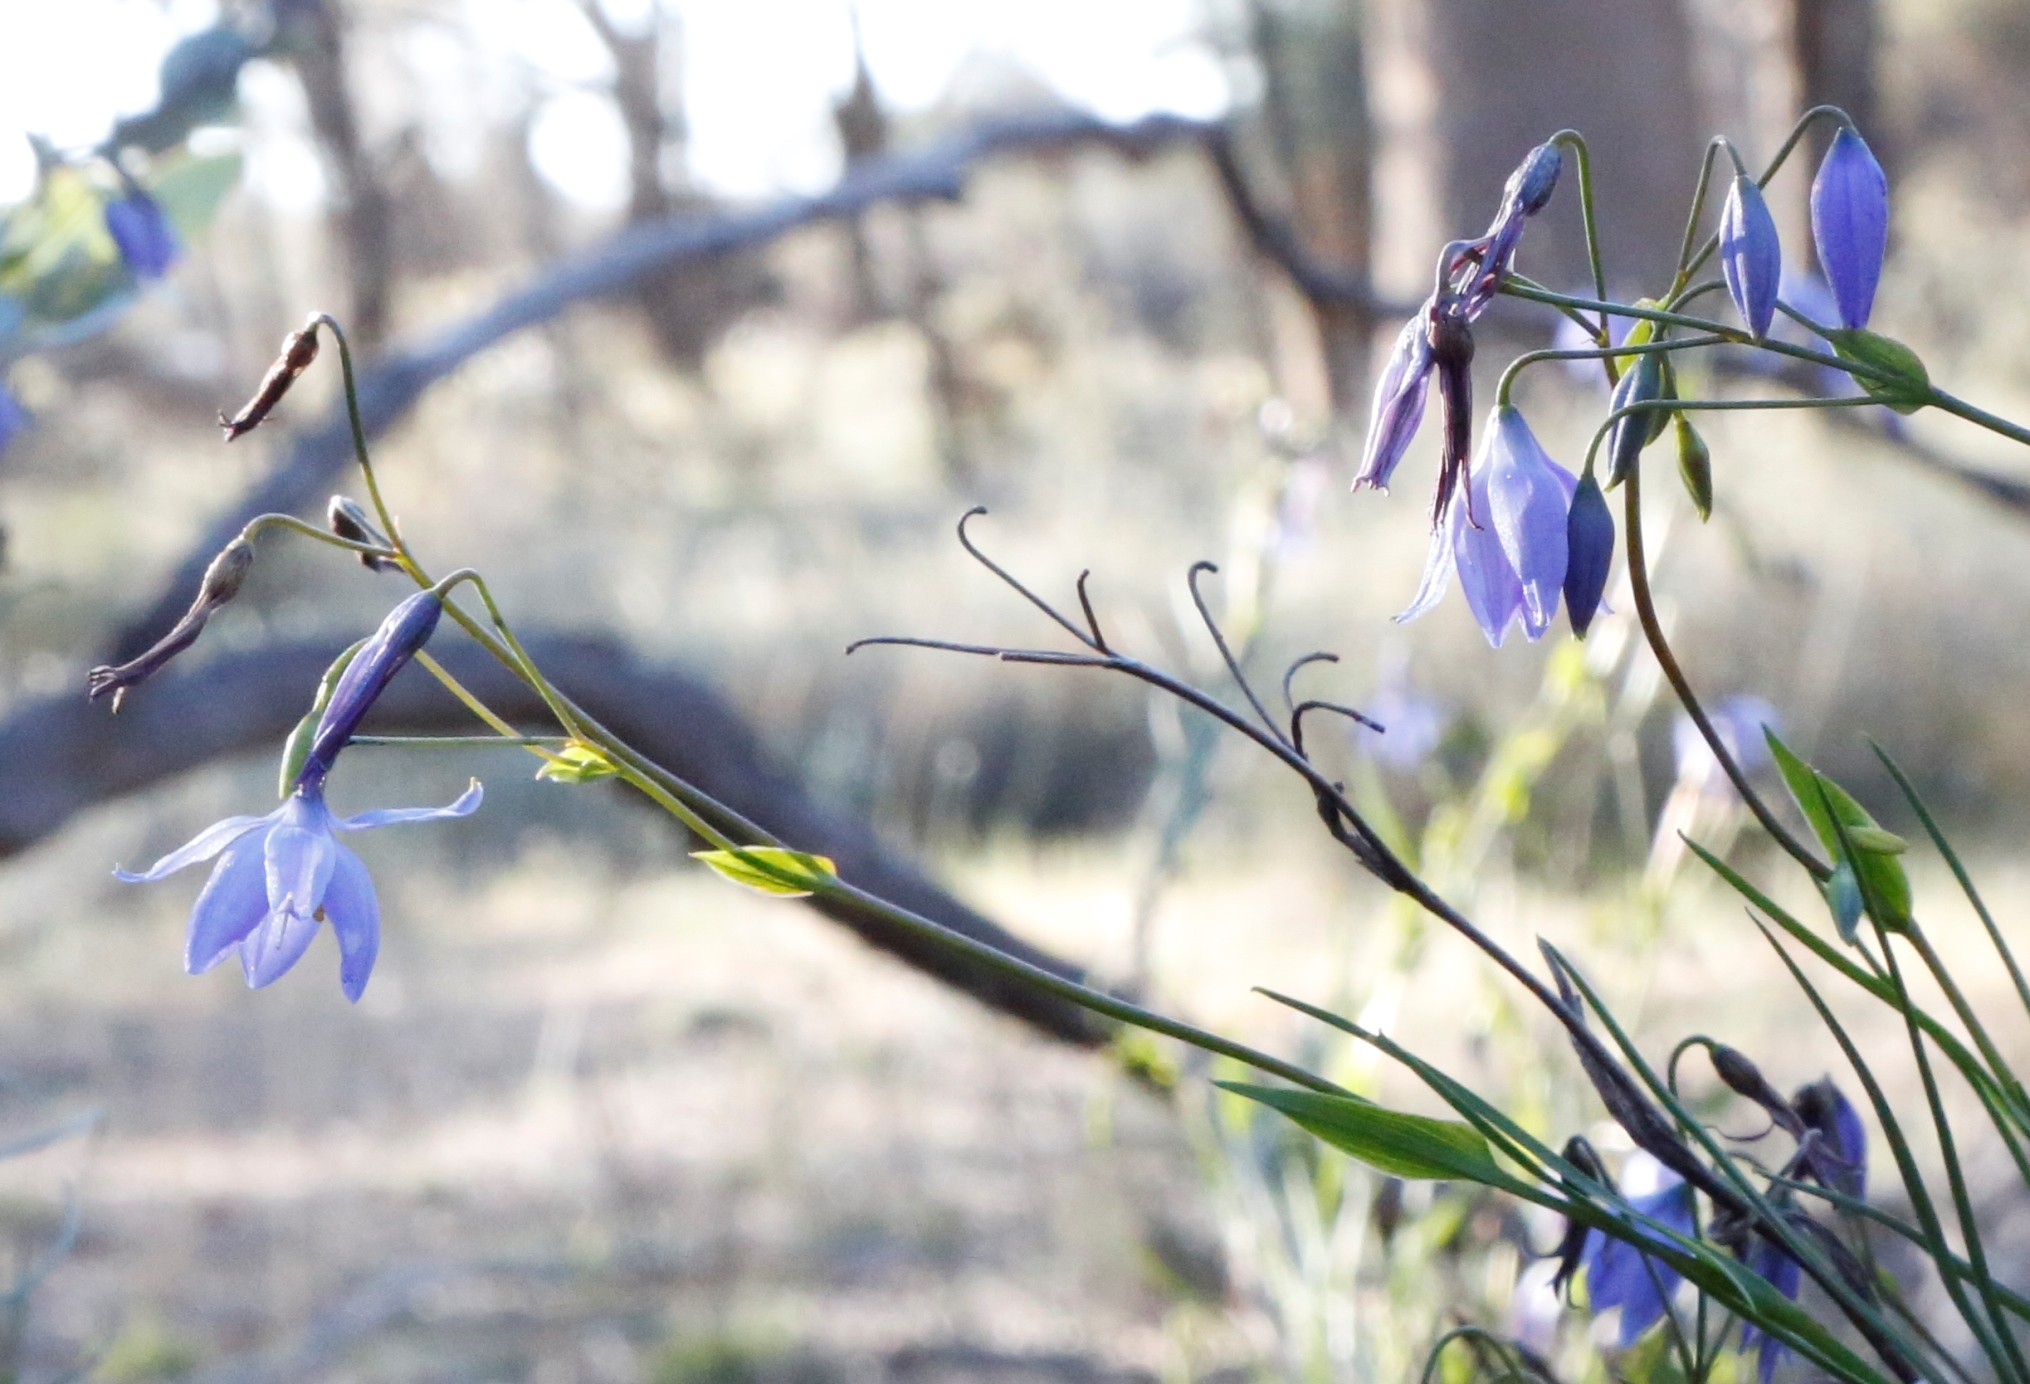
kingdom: Plantae
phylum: Tracheophyta
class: Liliopsida
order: Asparagales
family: Asphodelaceae
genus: Stypandra
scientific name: Stypandra glauca
